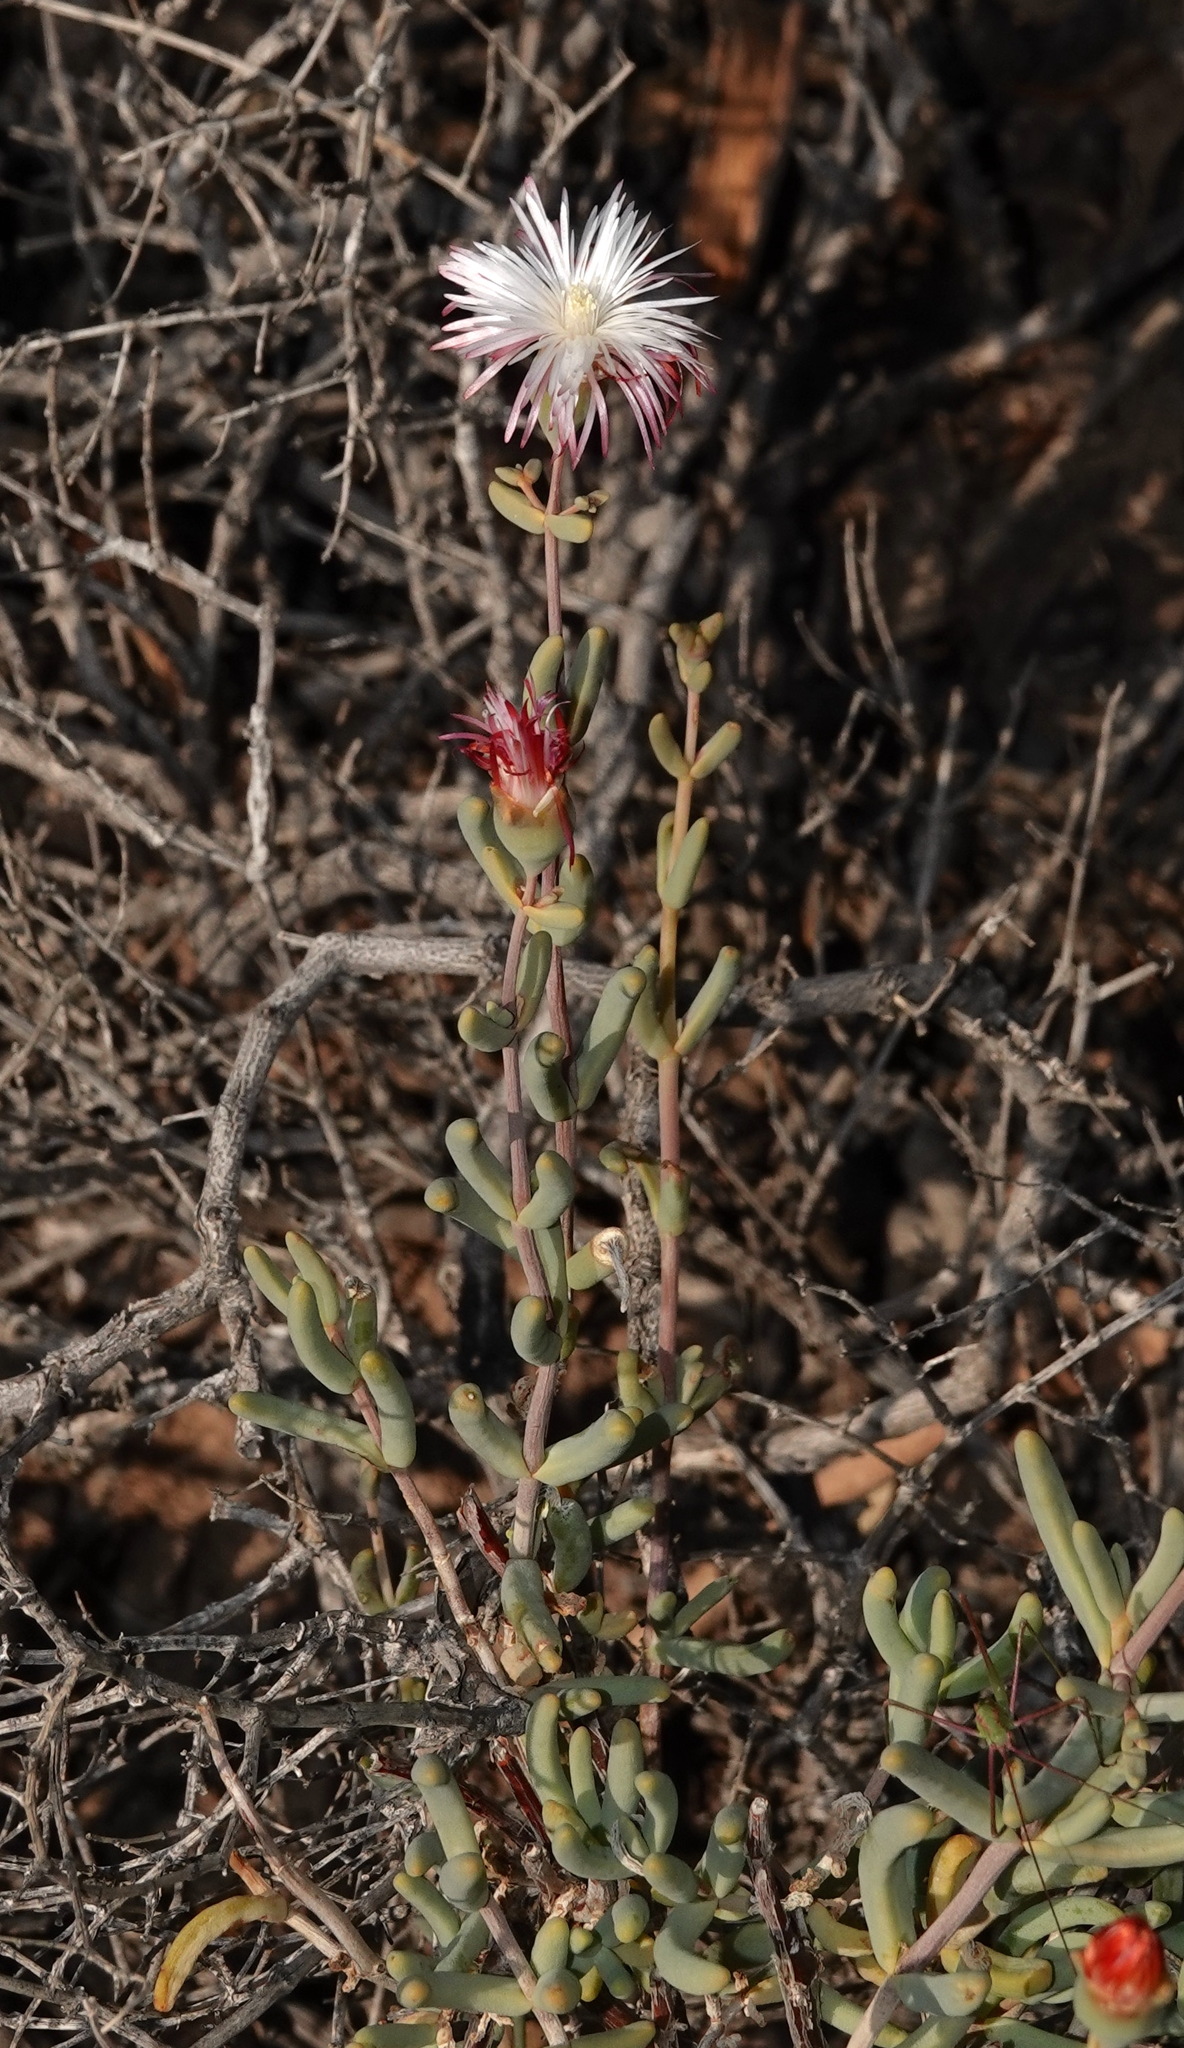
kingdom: Plantae
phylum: Tracheophyta
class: Magnoliopsida
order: Caryophyllales
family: Aizoaceae
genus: Mesembryanthemum
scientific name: Mesembryanthemum noctiflorum
